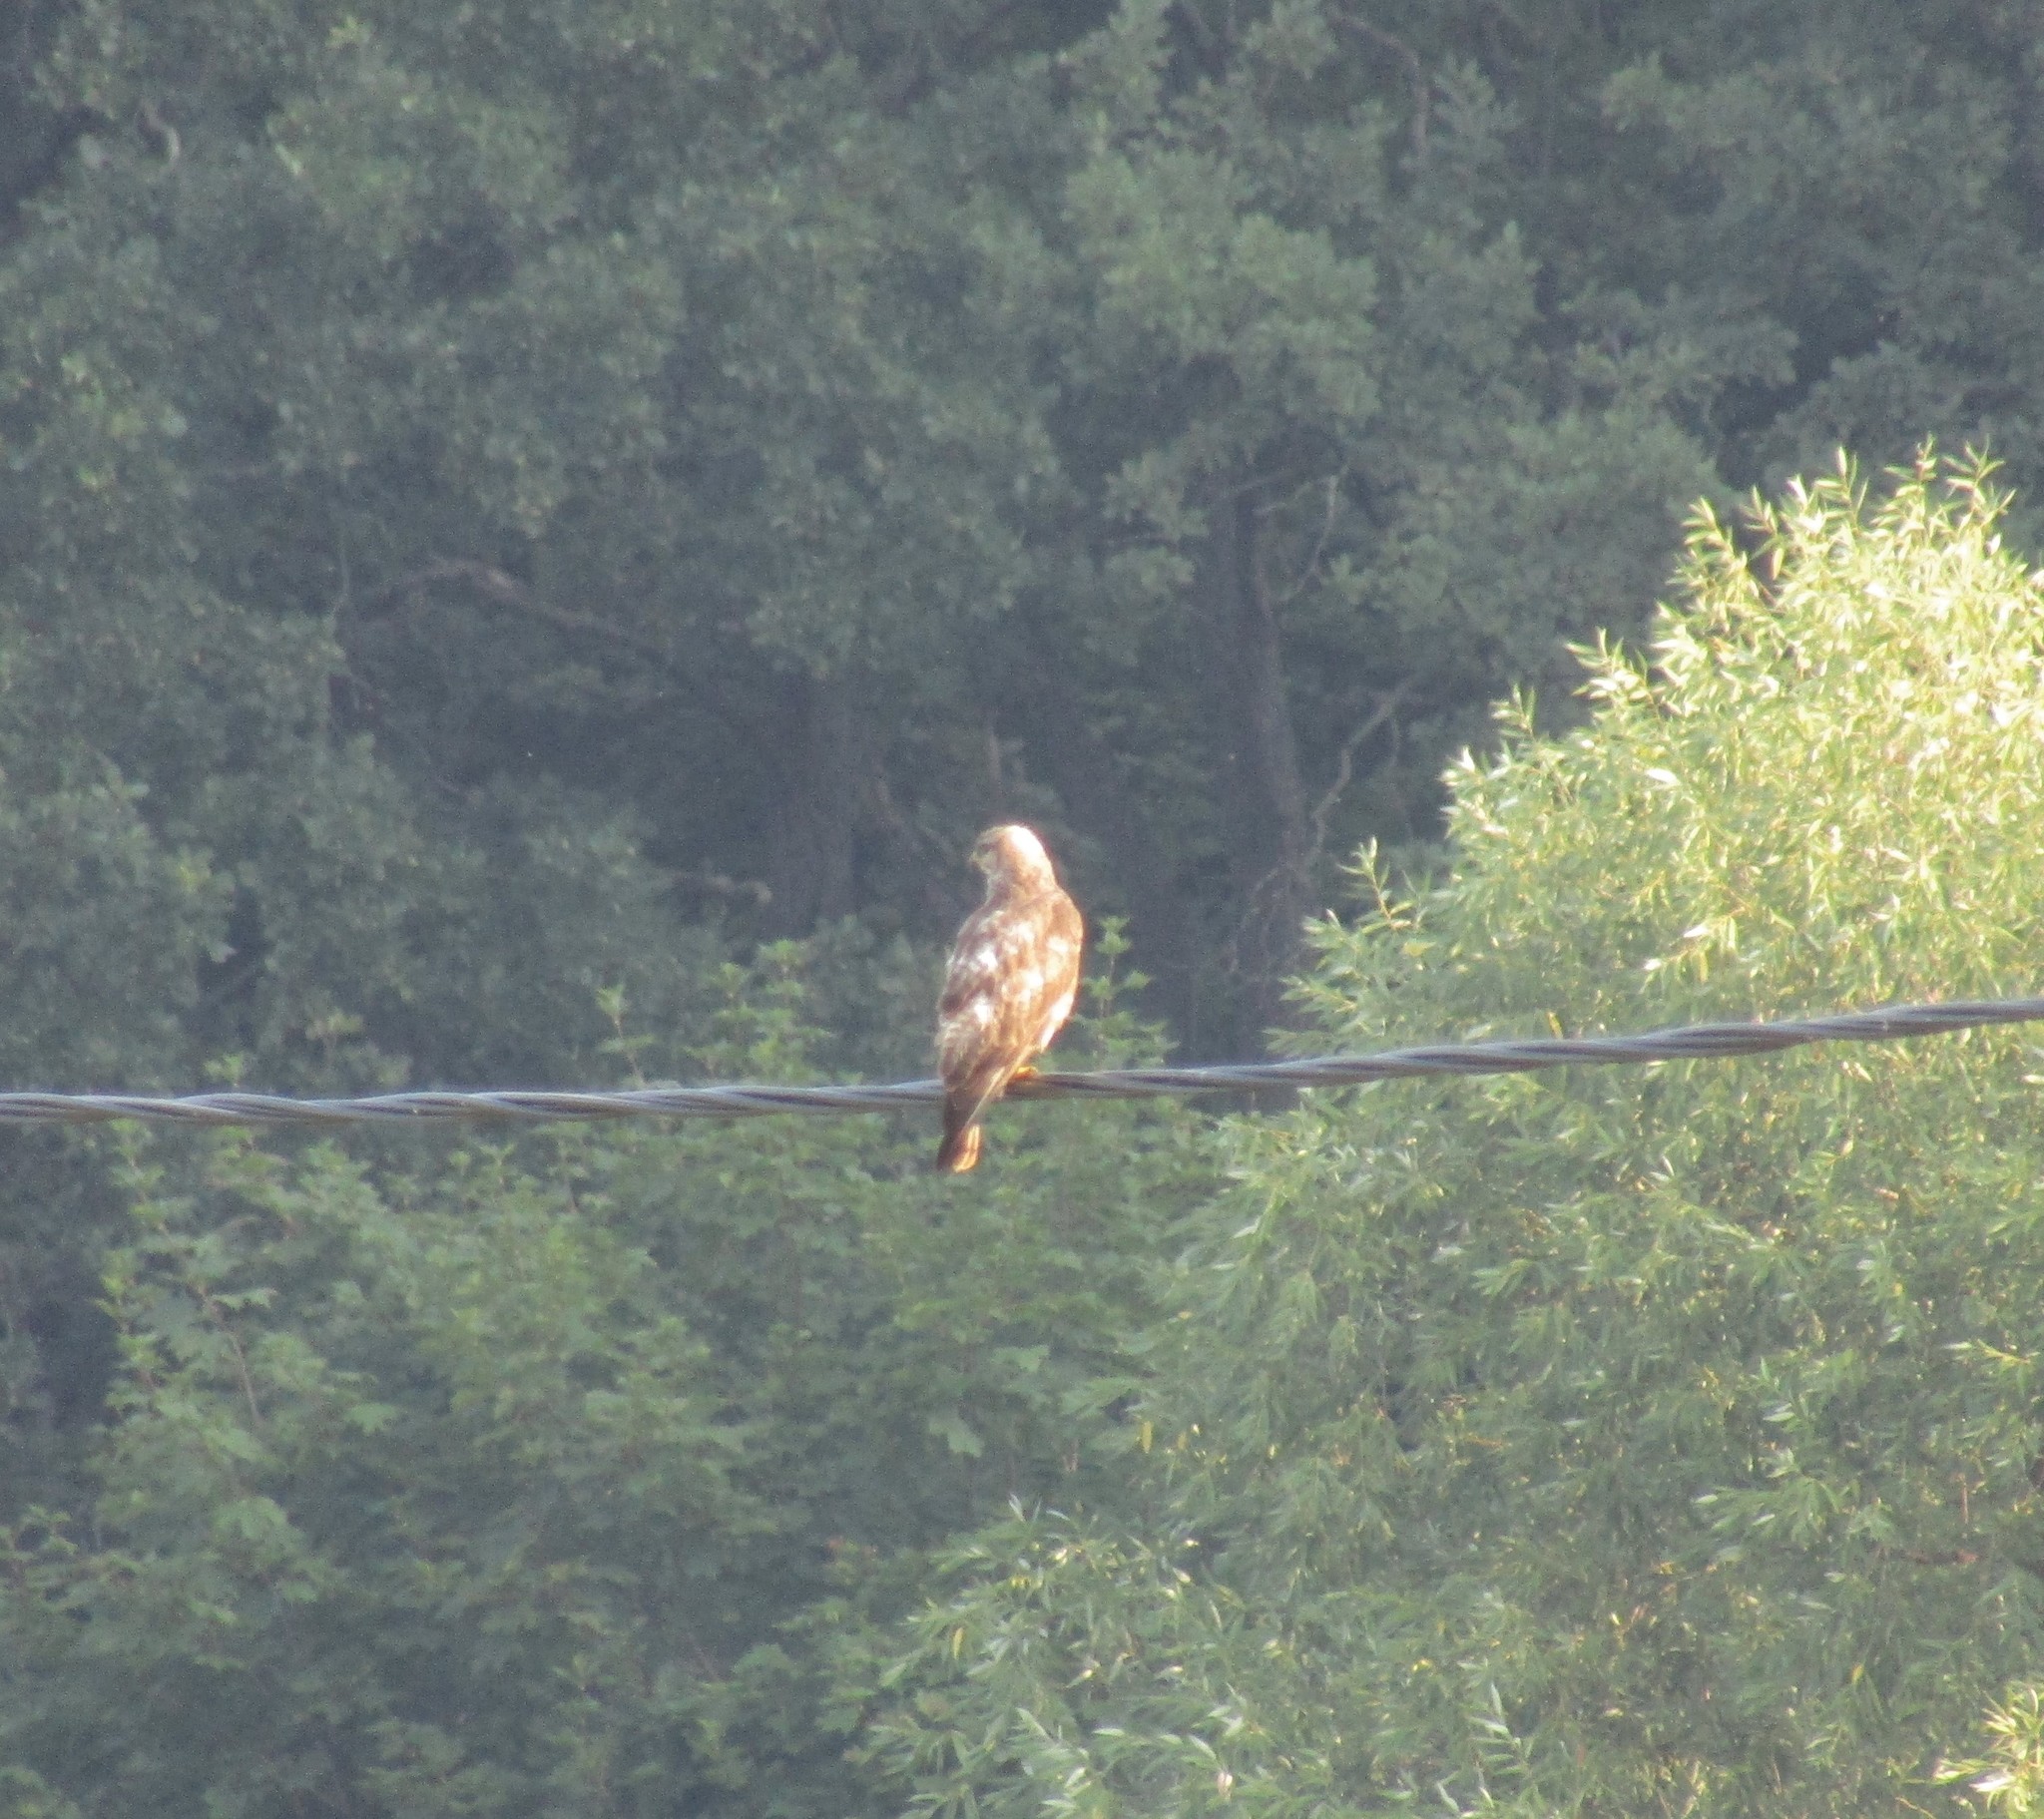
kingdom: Animalia
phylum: Chordata
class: Aves
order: Accipitriformes
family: Accipitridae
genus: Buteo
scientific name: Buteo buteo
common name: Common buzzard
